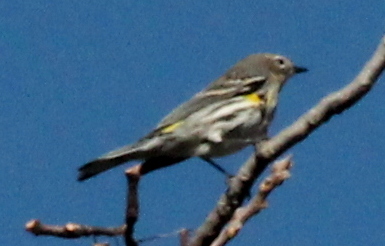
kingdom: Animalia
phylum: Chordata
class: Aves
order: Passeriformes
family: Parulidae
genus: Setophaga
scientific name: Setophaga coronata
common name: Myrtle warbler
